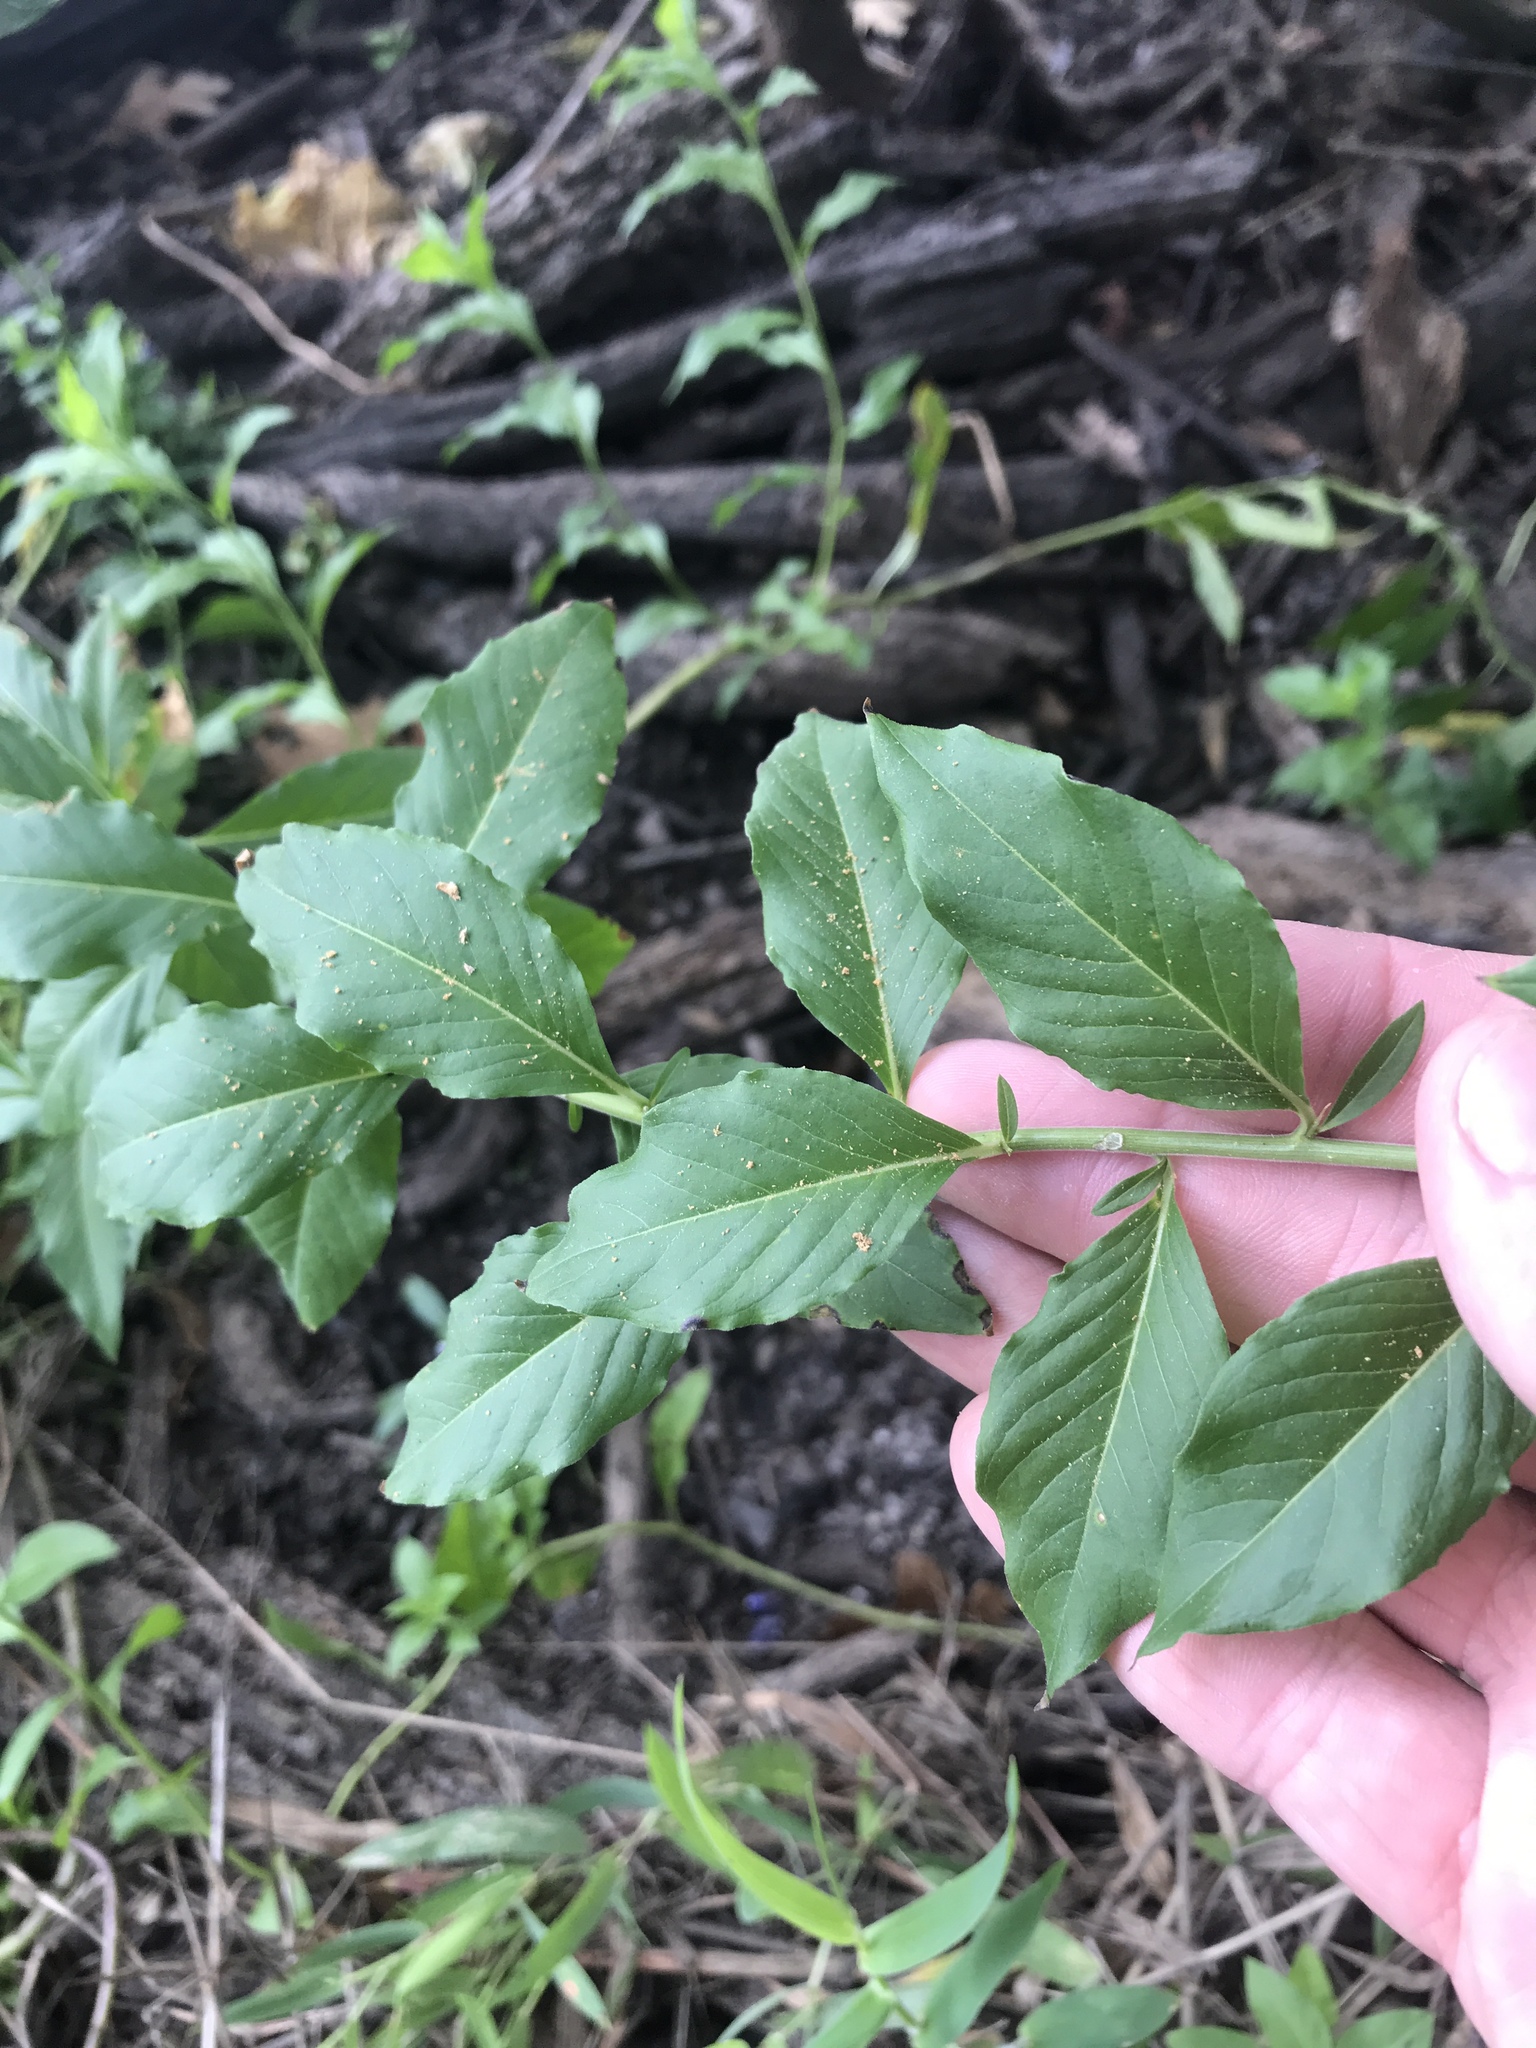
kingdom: Plantae
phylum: Tracheophyta
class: Magnoliopsida
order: Solanales
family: Hydroleaceae
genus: Hydrolea
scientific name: Hydrolea ovata
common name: Ovate false fiddleleaf
